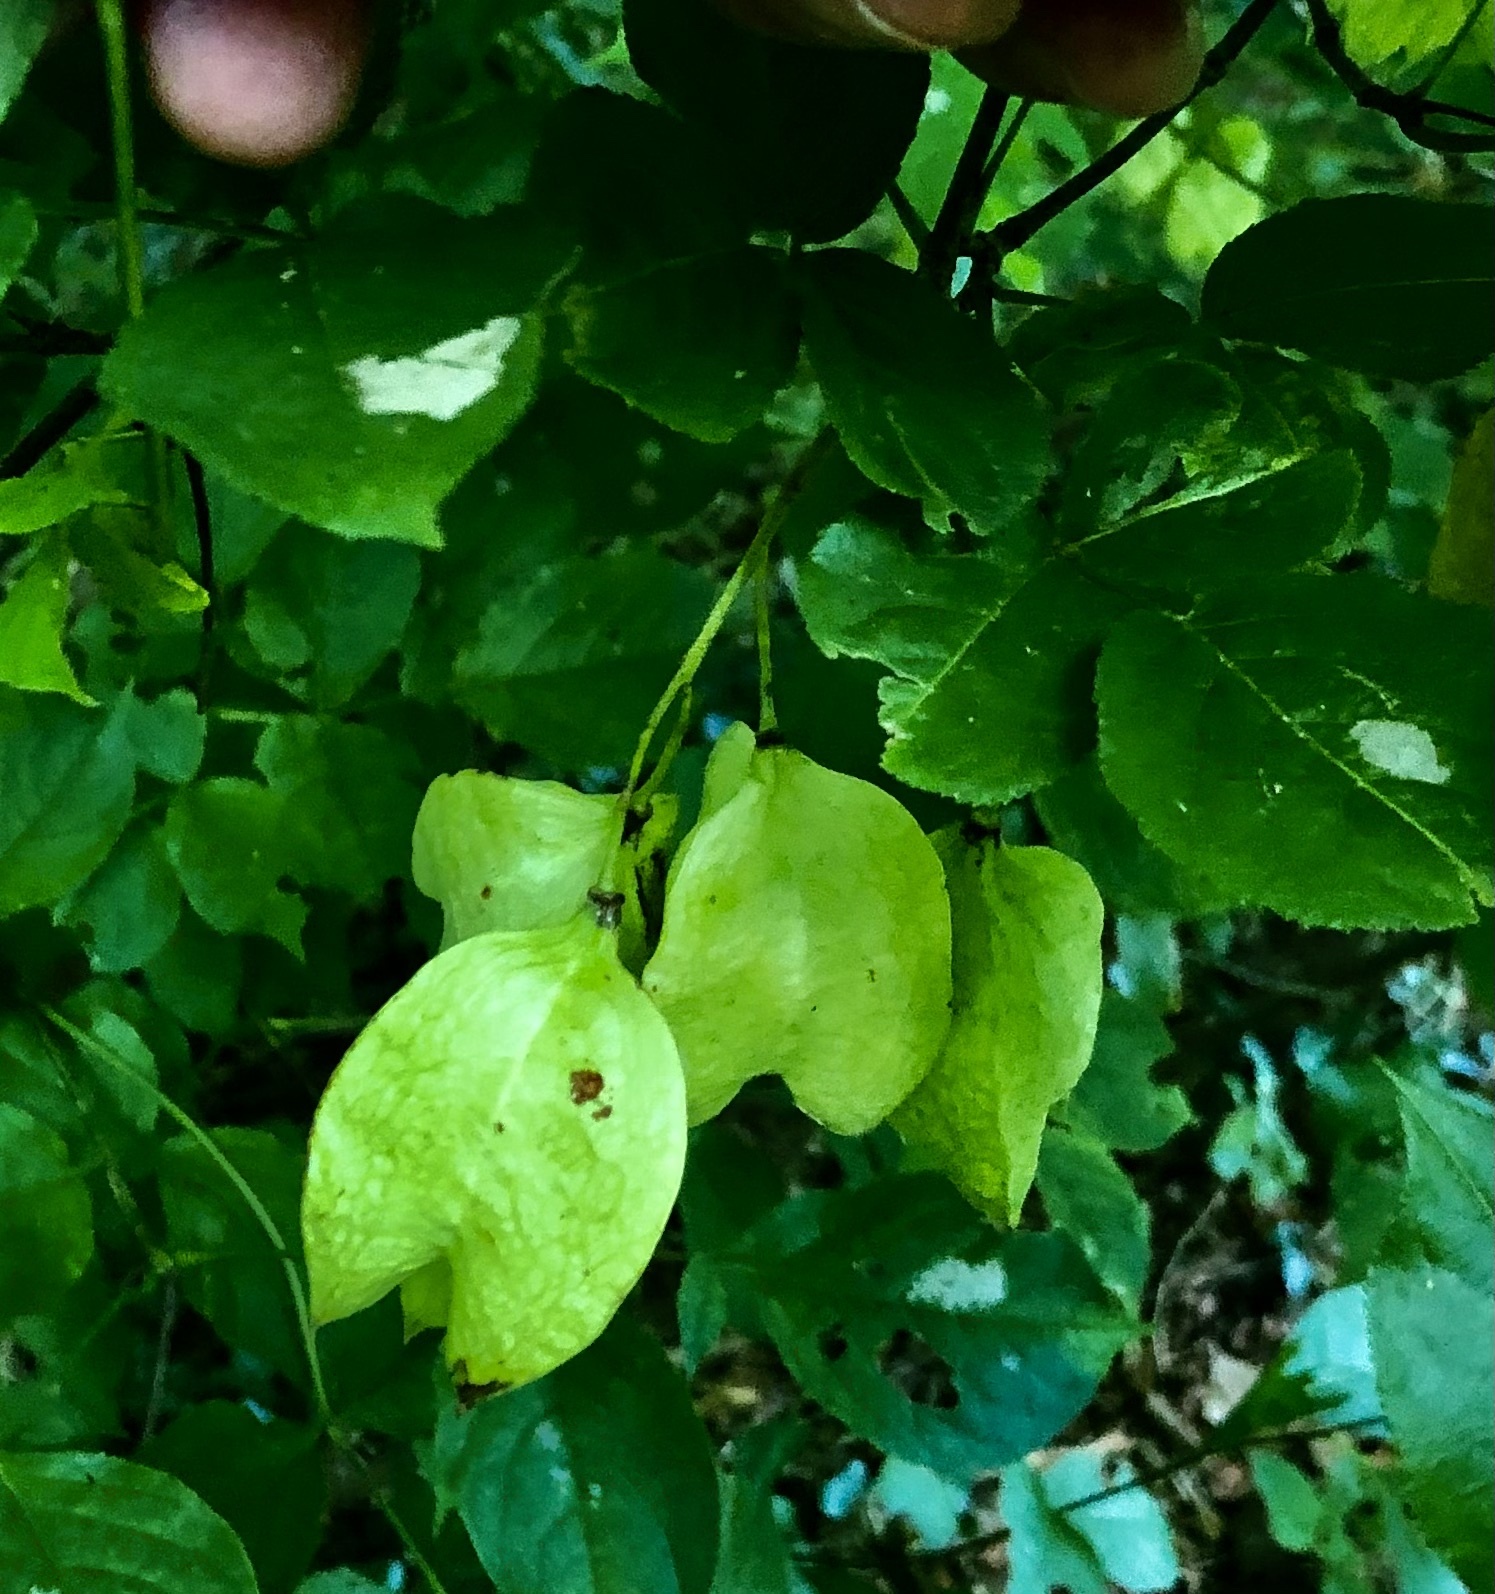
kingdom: Plantae
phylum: Tracheophyta
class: Magnoliopsida
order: Crossosomatales
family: Staphyleaceae
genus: Staphylea
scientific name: Staphylea trifolia
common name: American bladdernut
